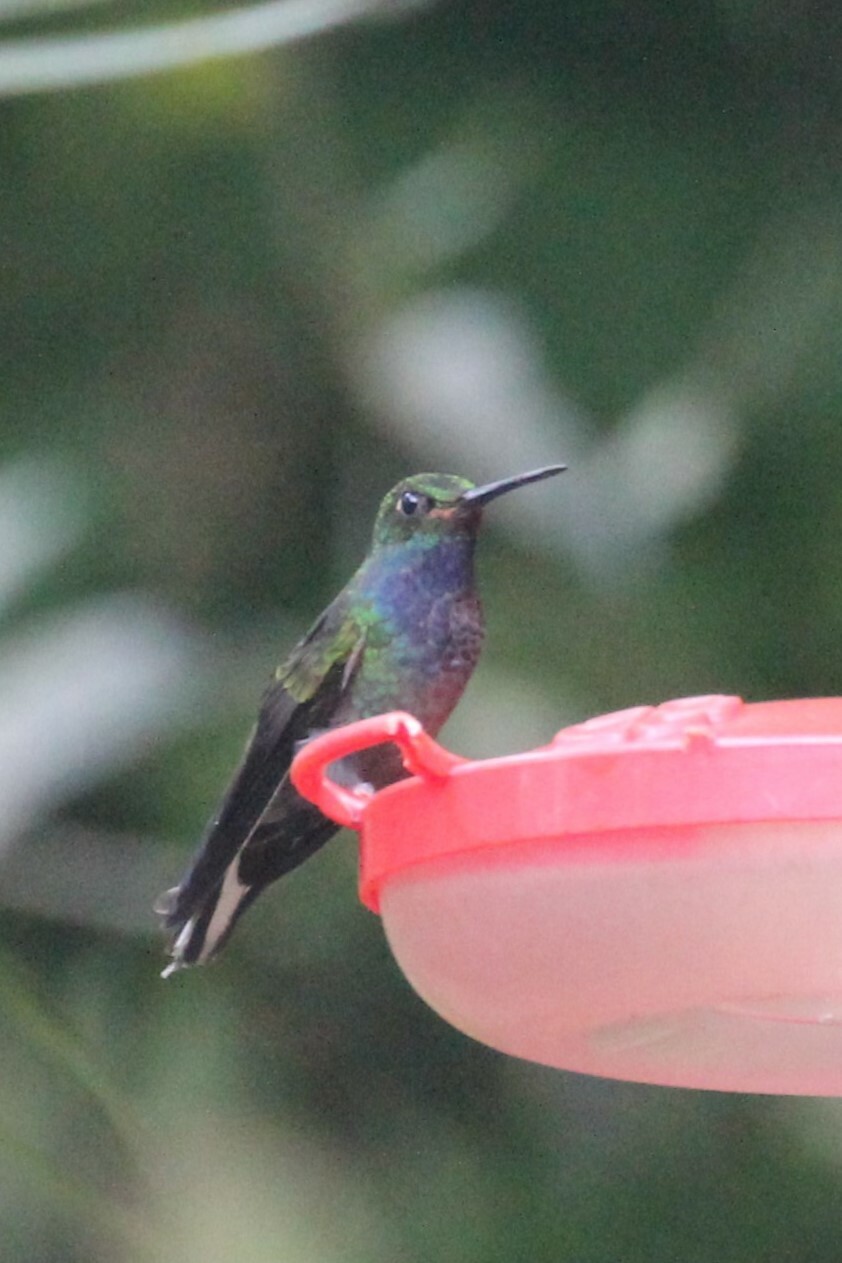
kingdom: Animalia
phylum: Chordata
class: Aves
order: Apodiformes
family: Trochilidae
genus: Urochroa
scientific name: Urochroa leucura
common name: Green-backed hillstar
